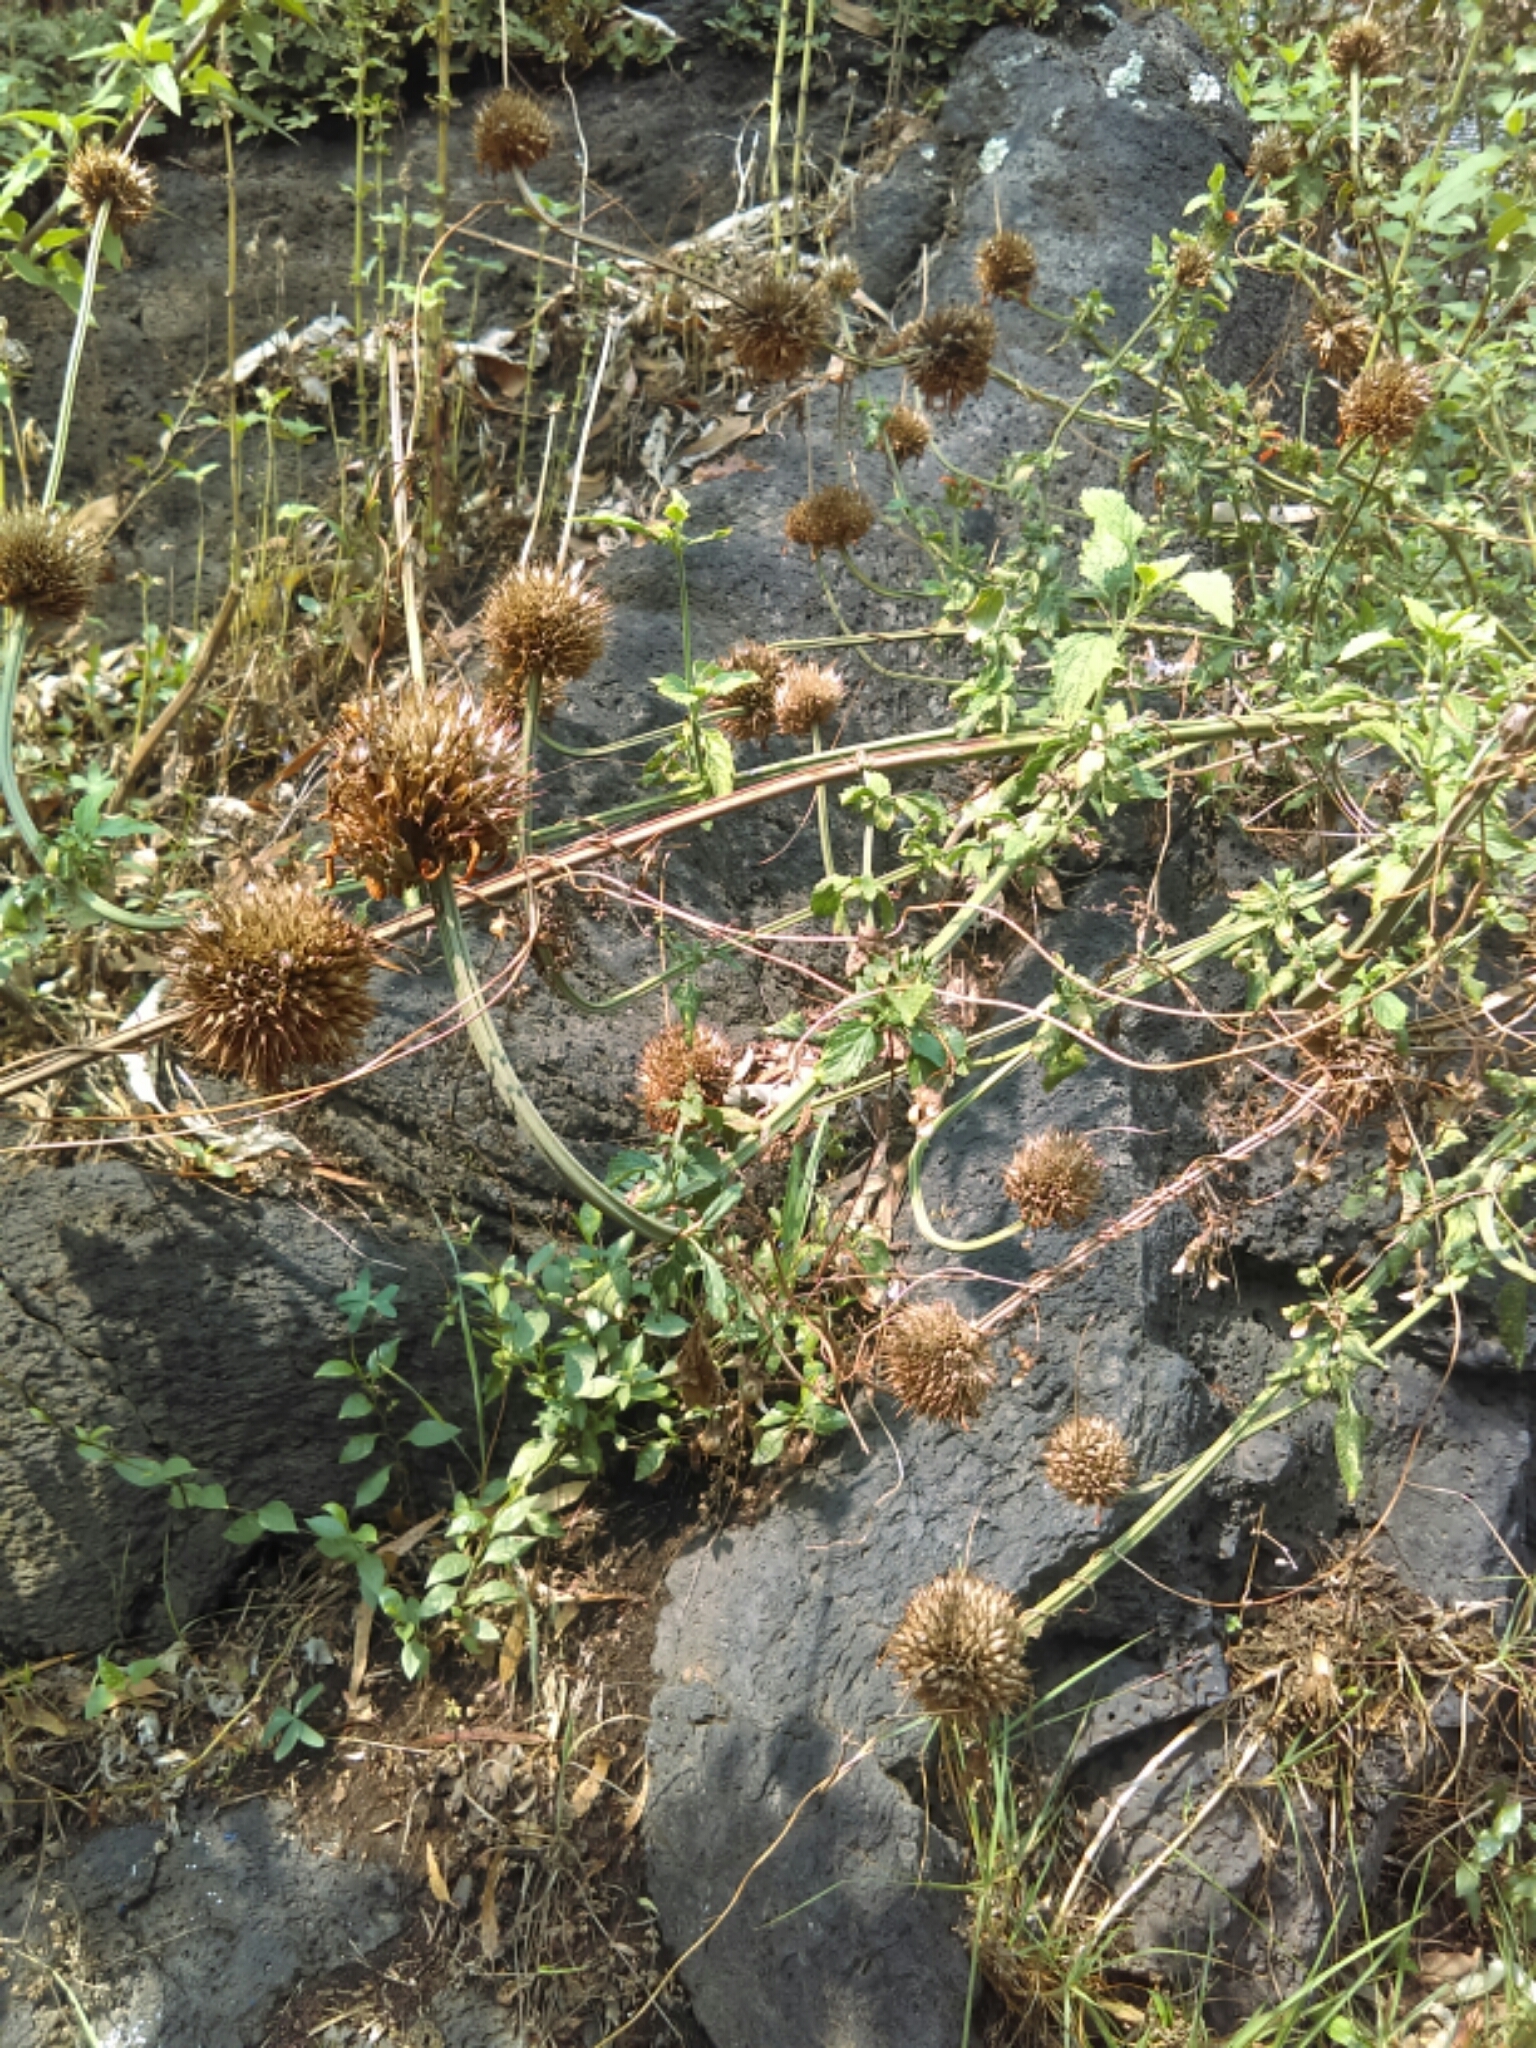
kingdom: Plantae
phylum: Tracheophyta
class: Magnoliopsida
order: Lamiales
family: Lamiaceae
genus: Leonotis
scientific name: Leonotis nepetifolia
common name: Christmas candlestick
